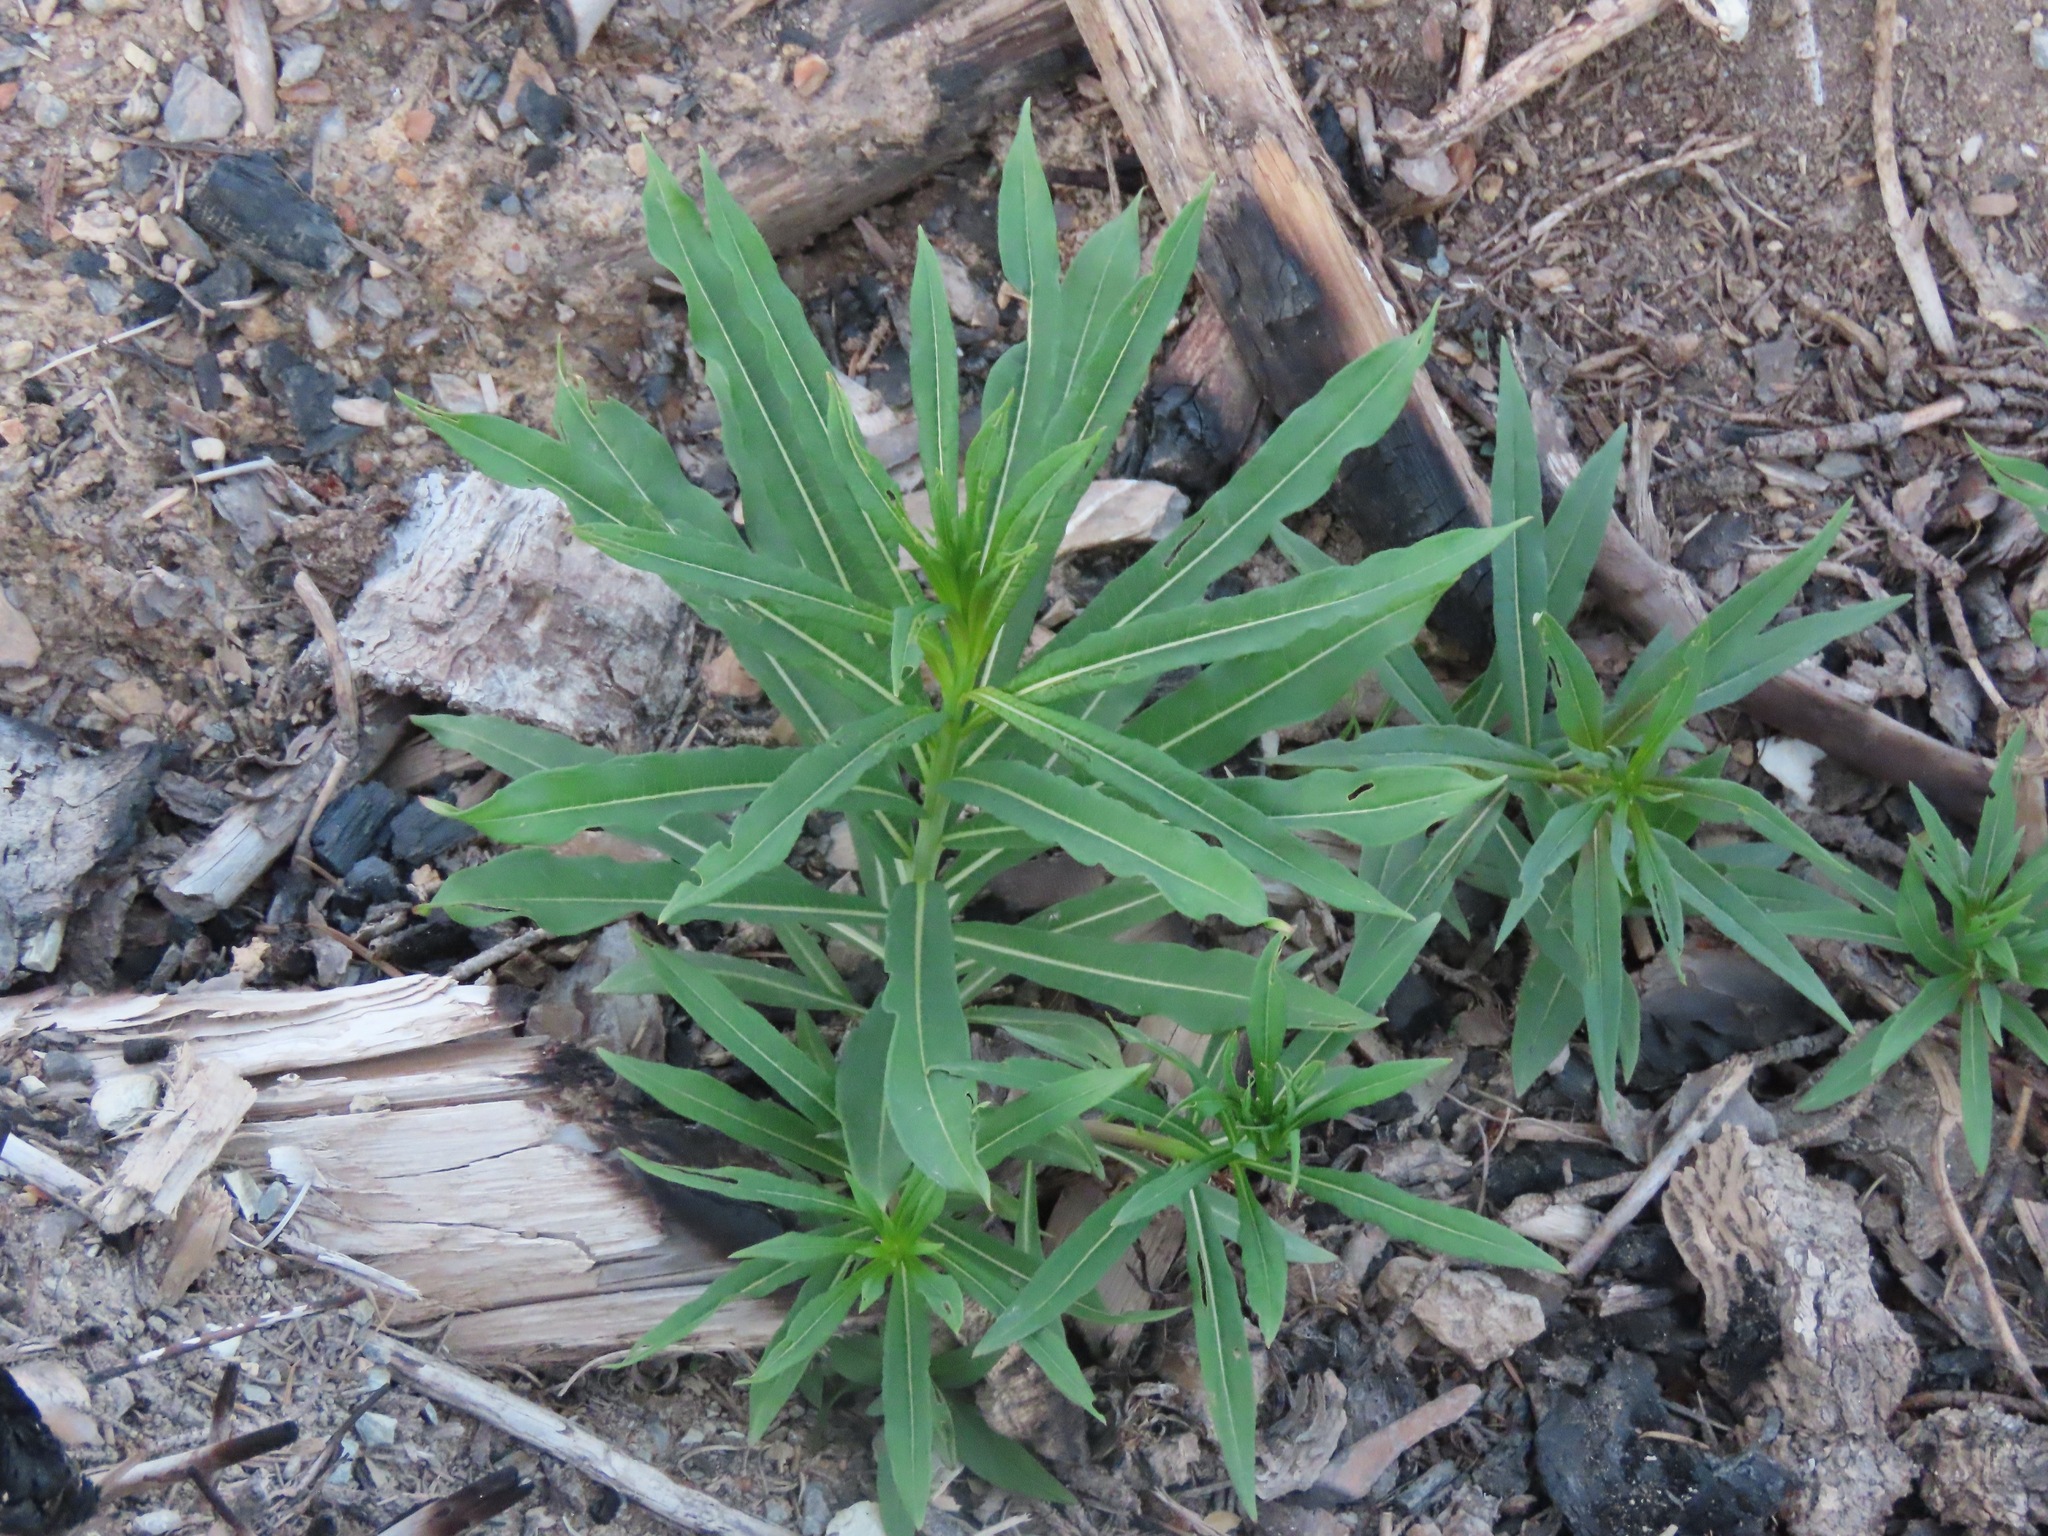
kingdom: Plantae
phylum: Tracheophyta
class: Magnoliopsida
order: Myrtales
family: Onagraceae
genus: Chamaenerion
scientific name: Chamaenerion angustifolium
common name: Fireweed
